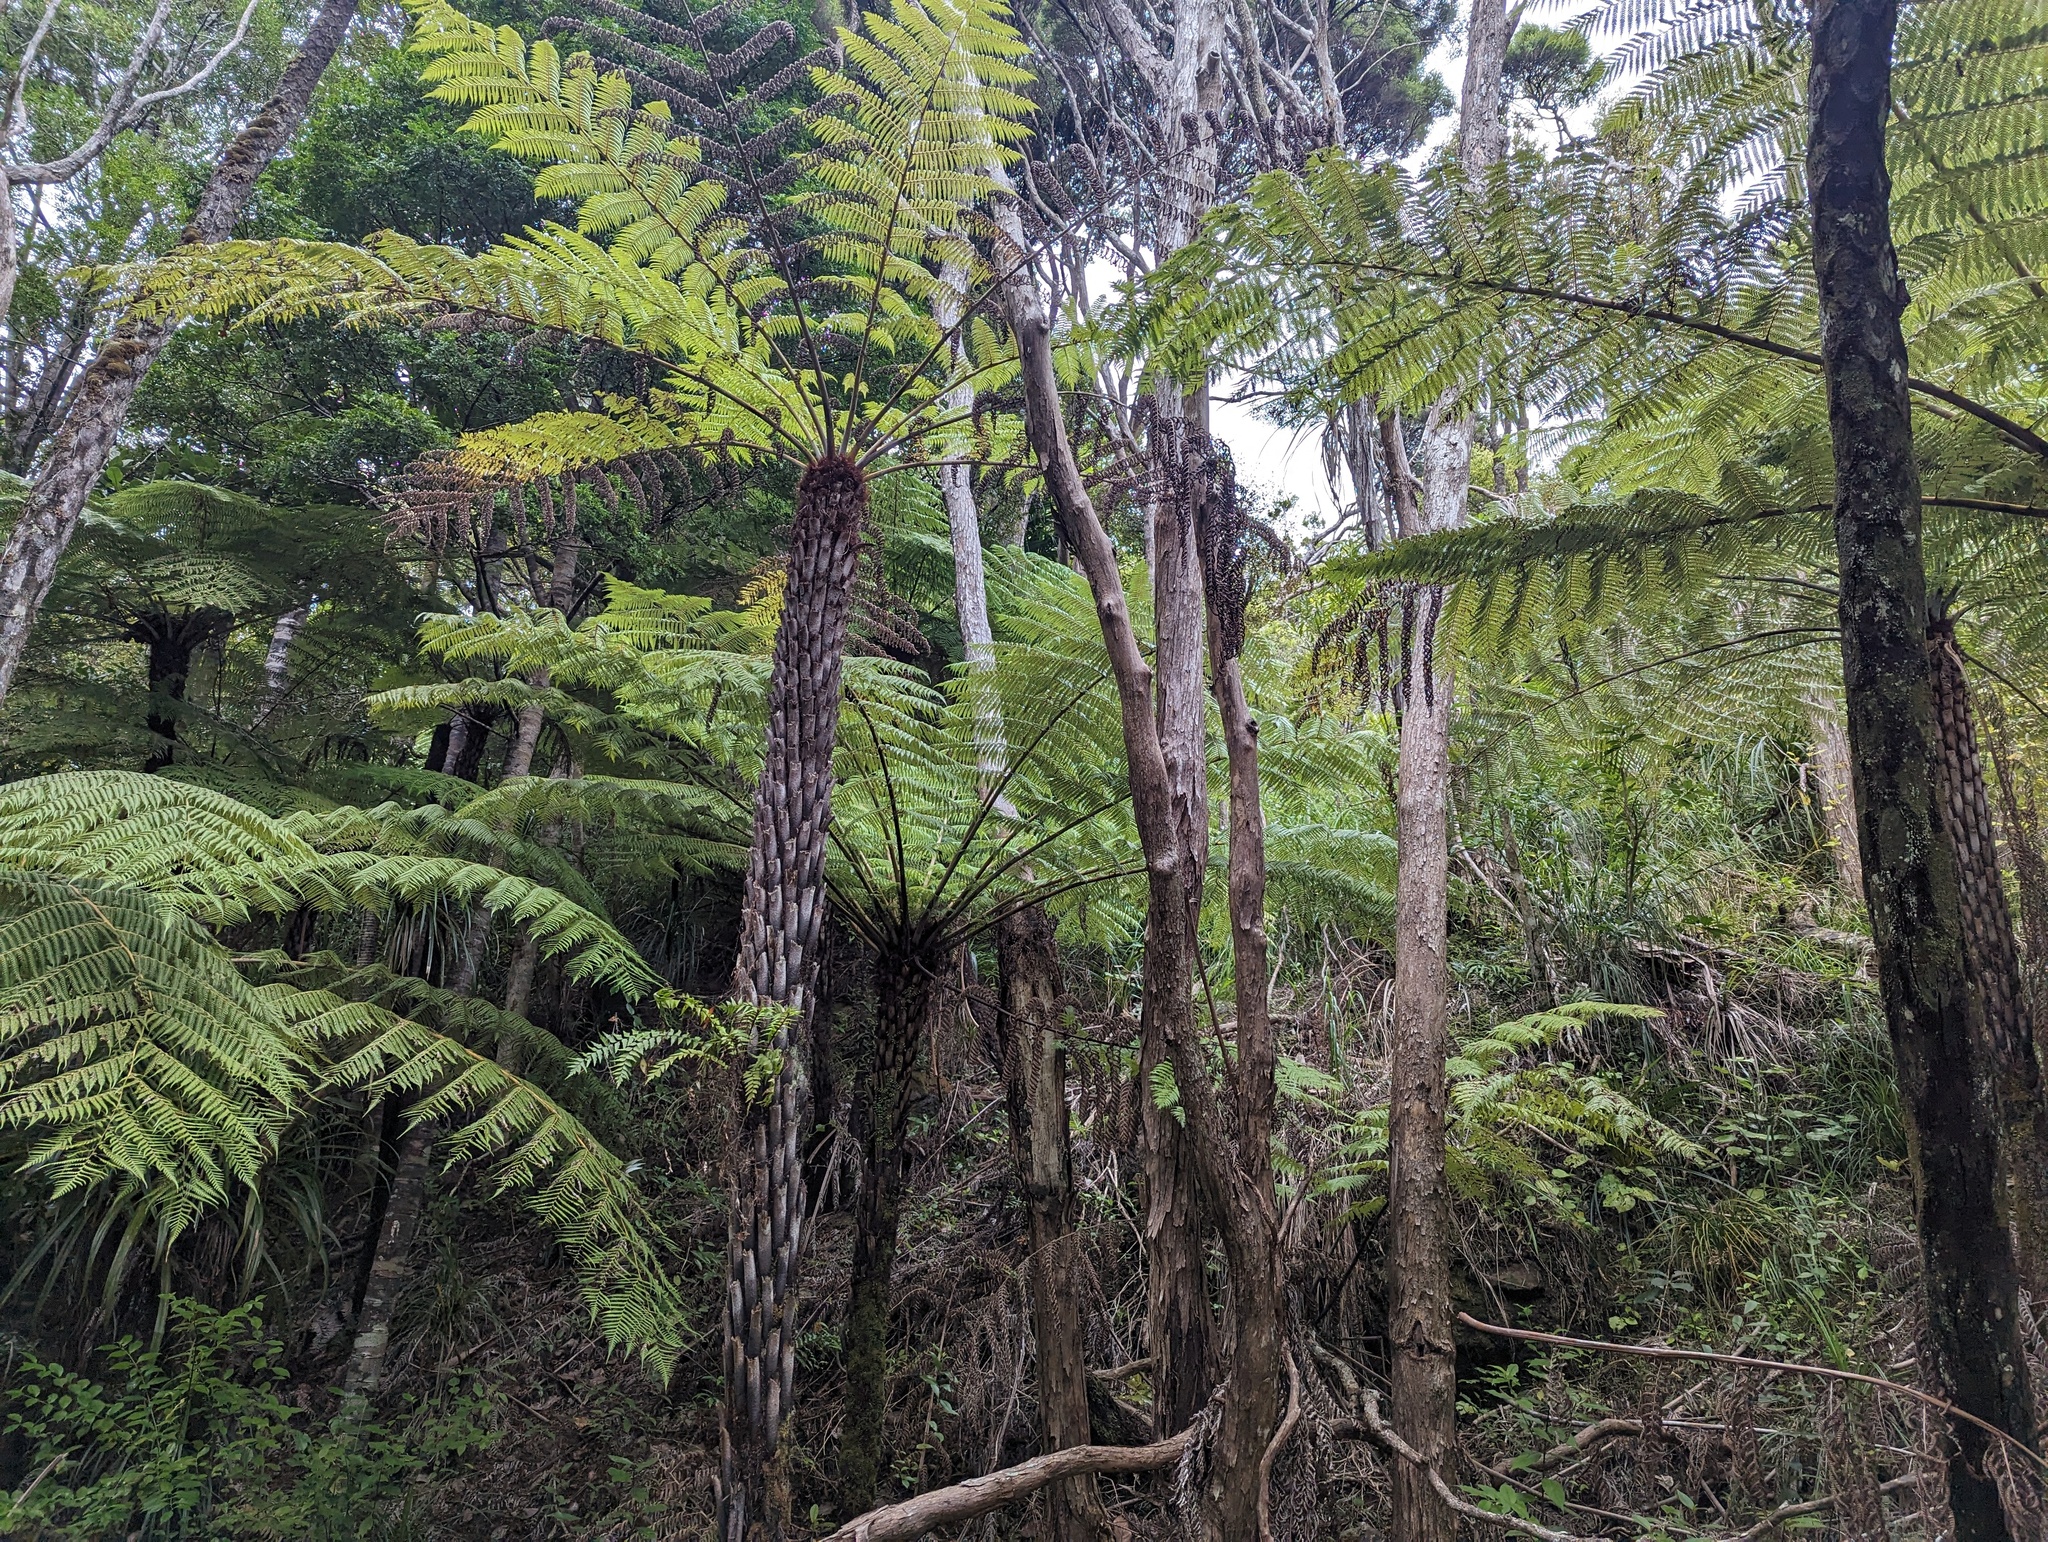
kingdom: Plantae
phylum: Tracheophyta
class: Polypodiopsida
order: Cyatheales
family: Cyatheaceae
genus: Alsophila
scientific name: Alsophila dealbata
